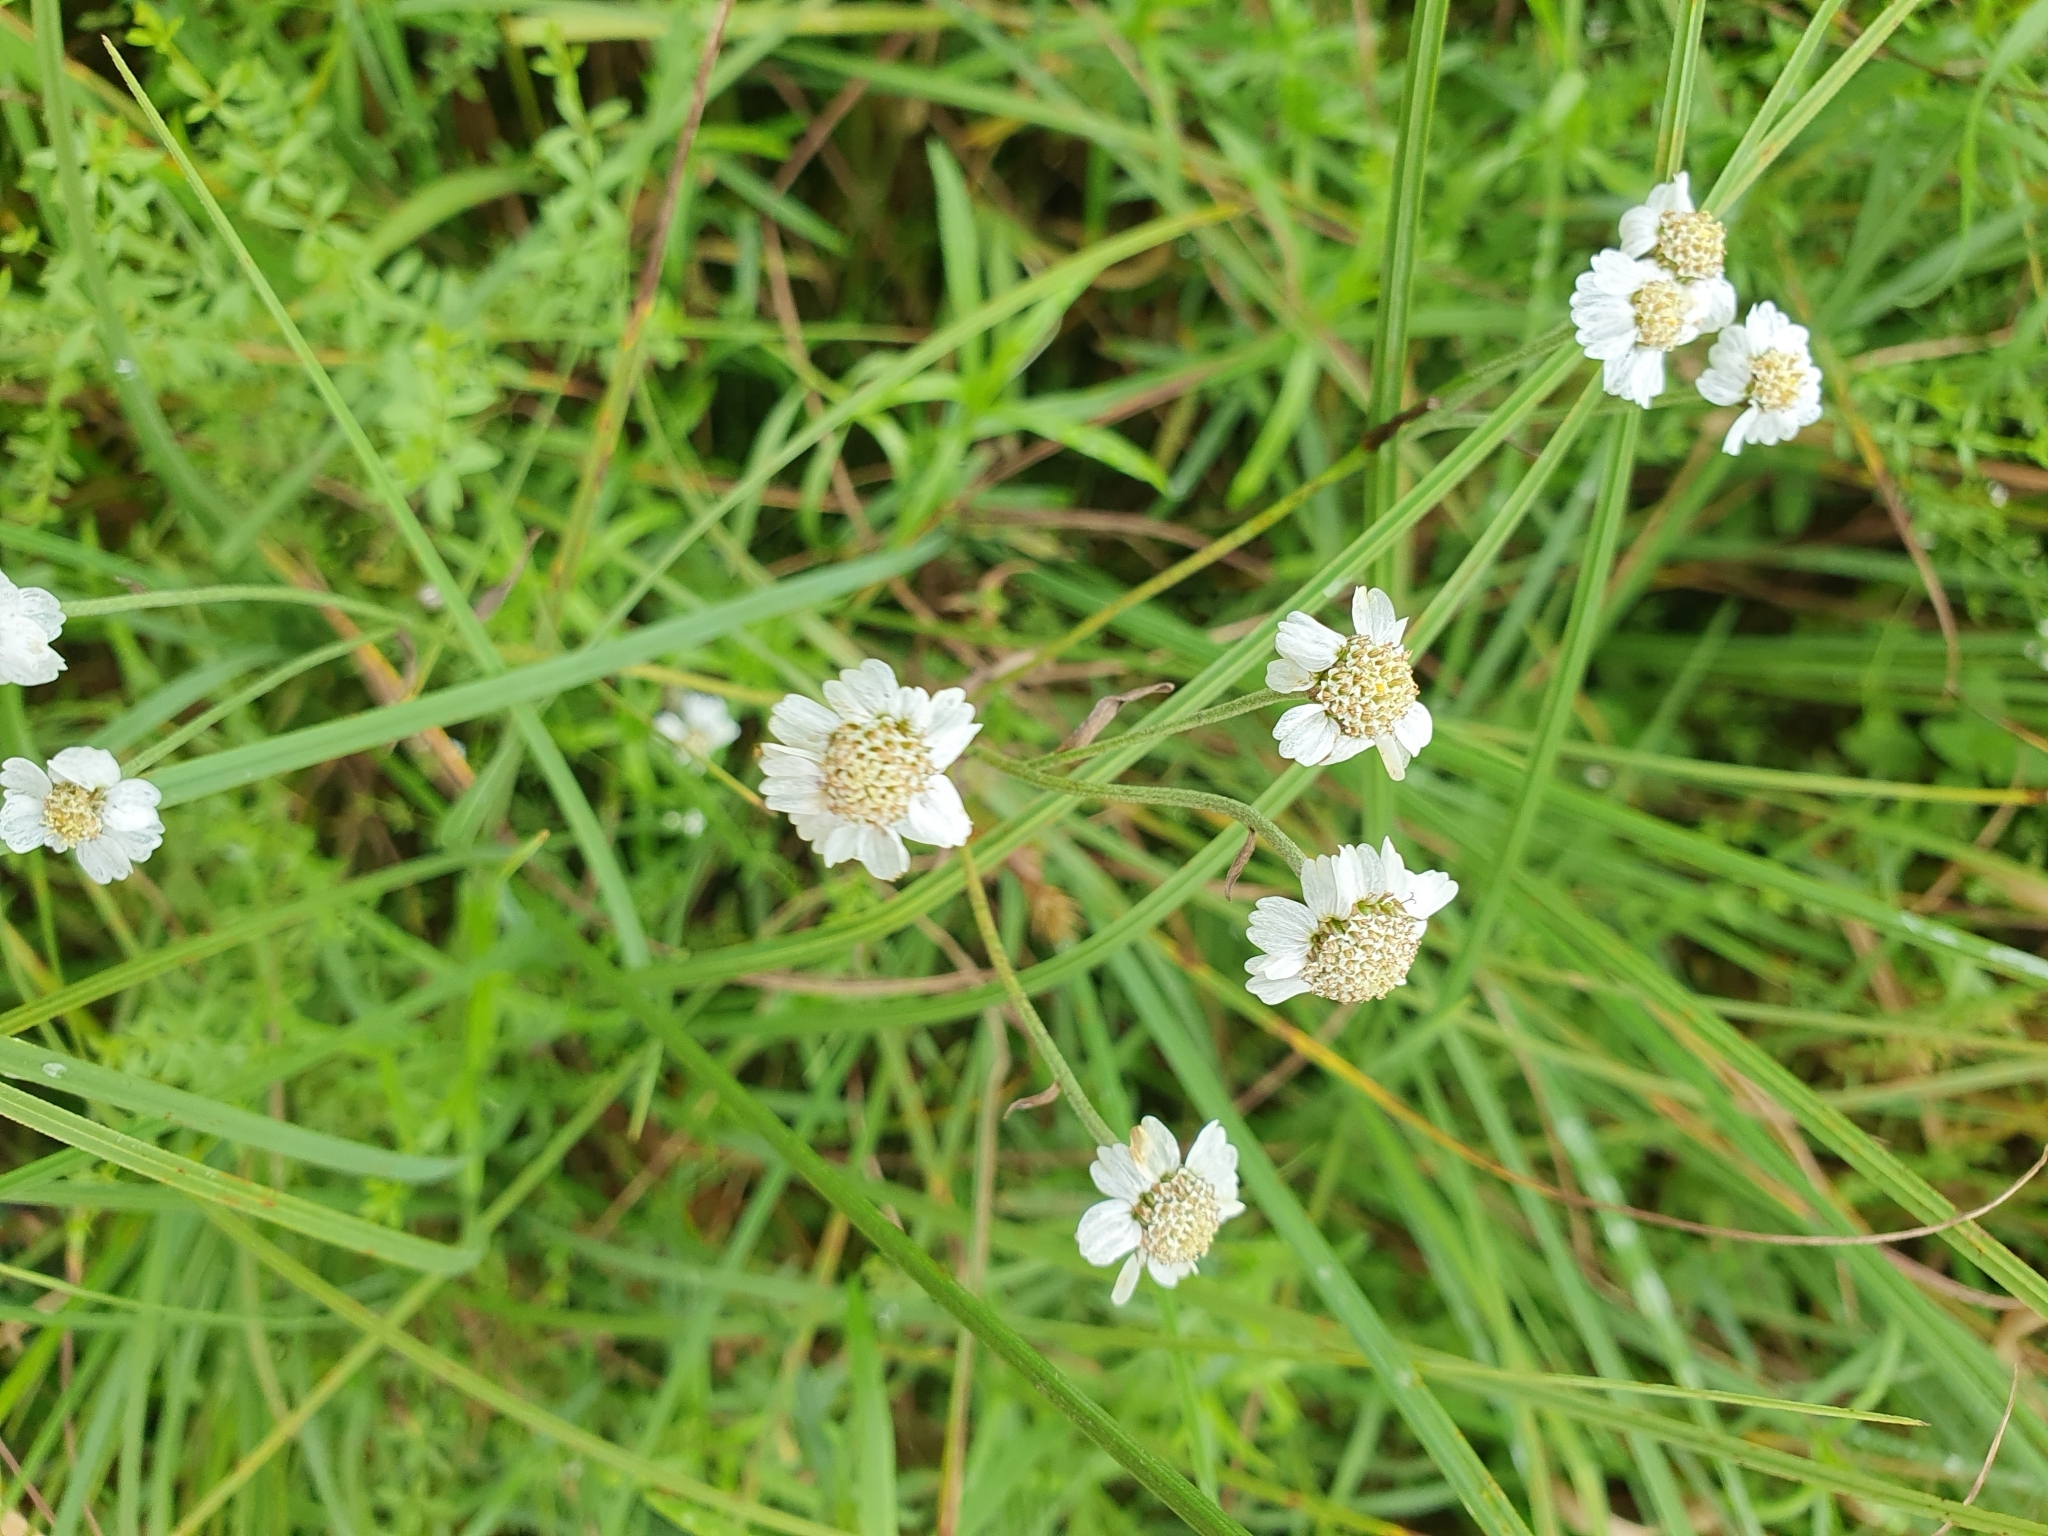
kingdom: Plantae
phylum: Tracheophyta
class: Magnoliopsida
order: Asterales
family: Asteraceae
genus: Achillea
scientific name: Achillea ptarmica
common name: Sneezeweed
